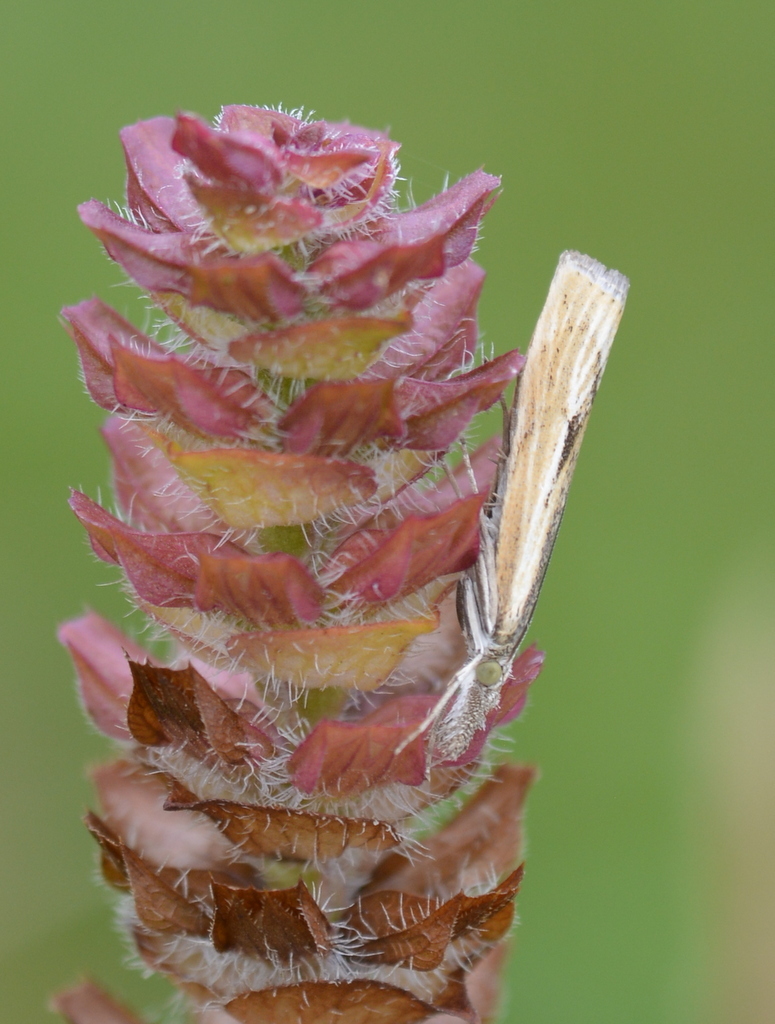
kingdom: Animalia
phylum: Arthropoda
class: Insecta
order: Lepidoptera
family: Crambidae
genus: Agriphila
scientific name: Agriphila inquinatella
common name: Barred grass-veneer
